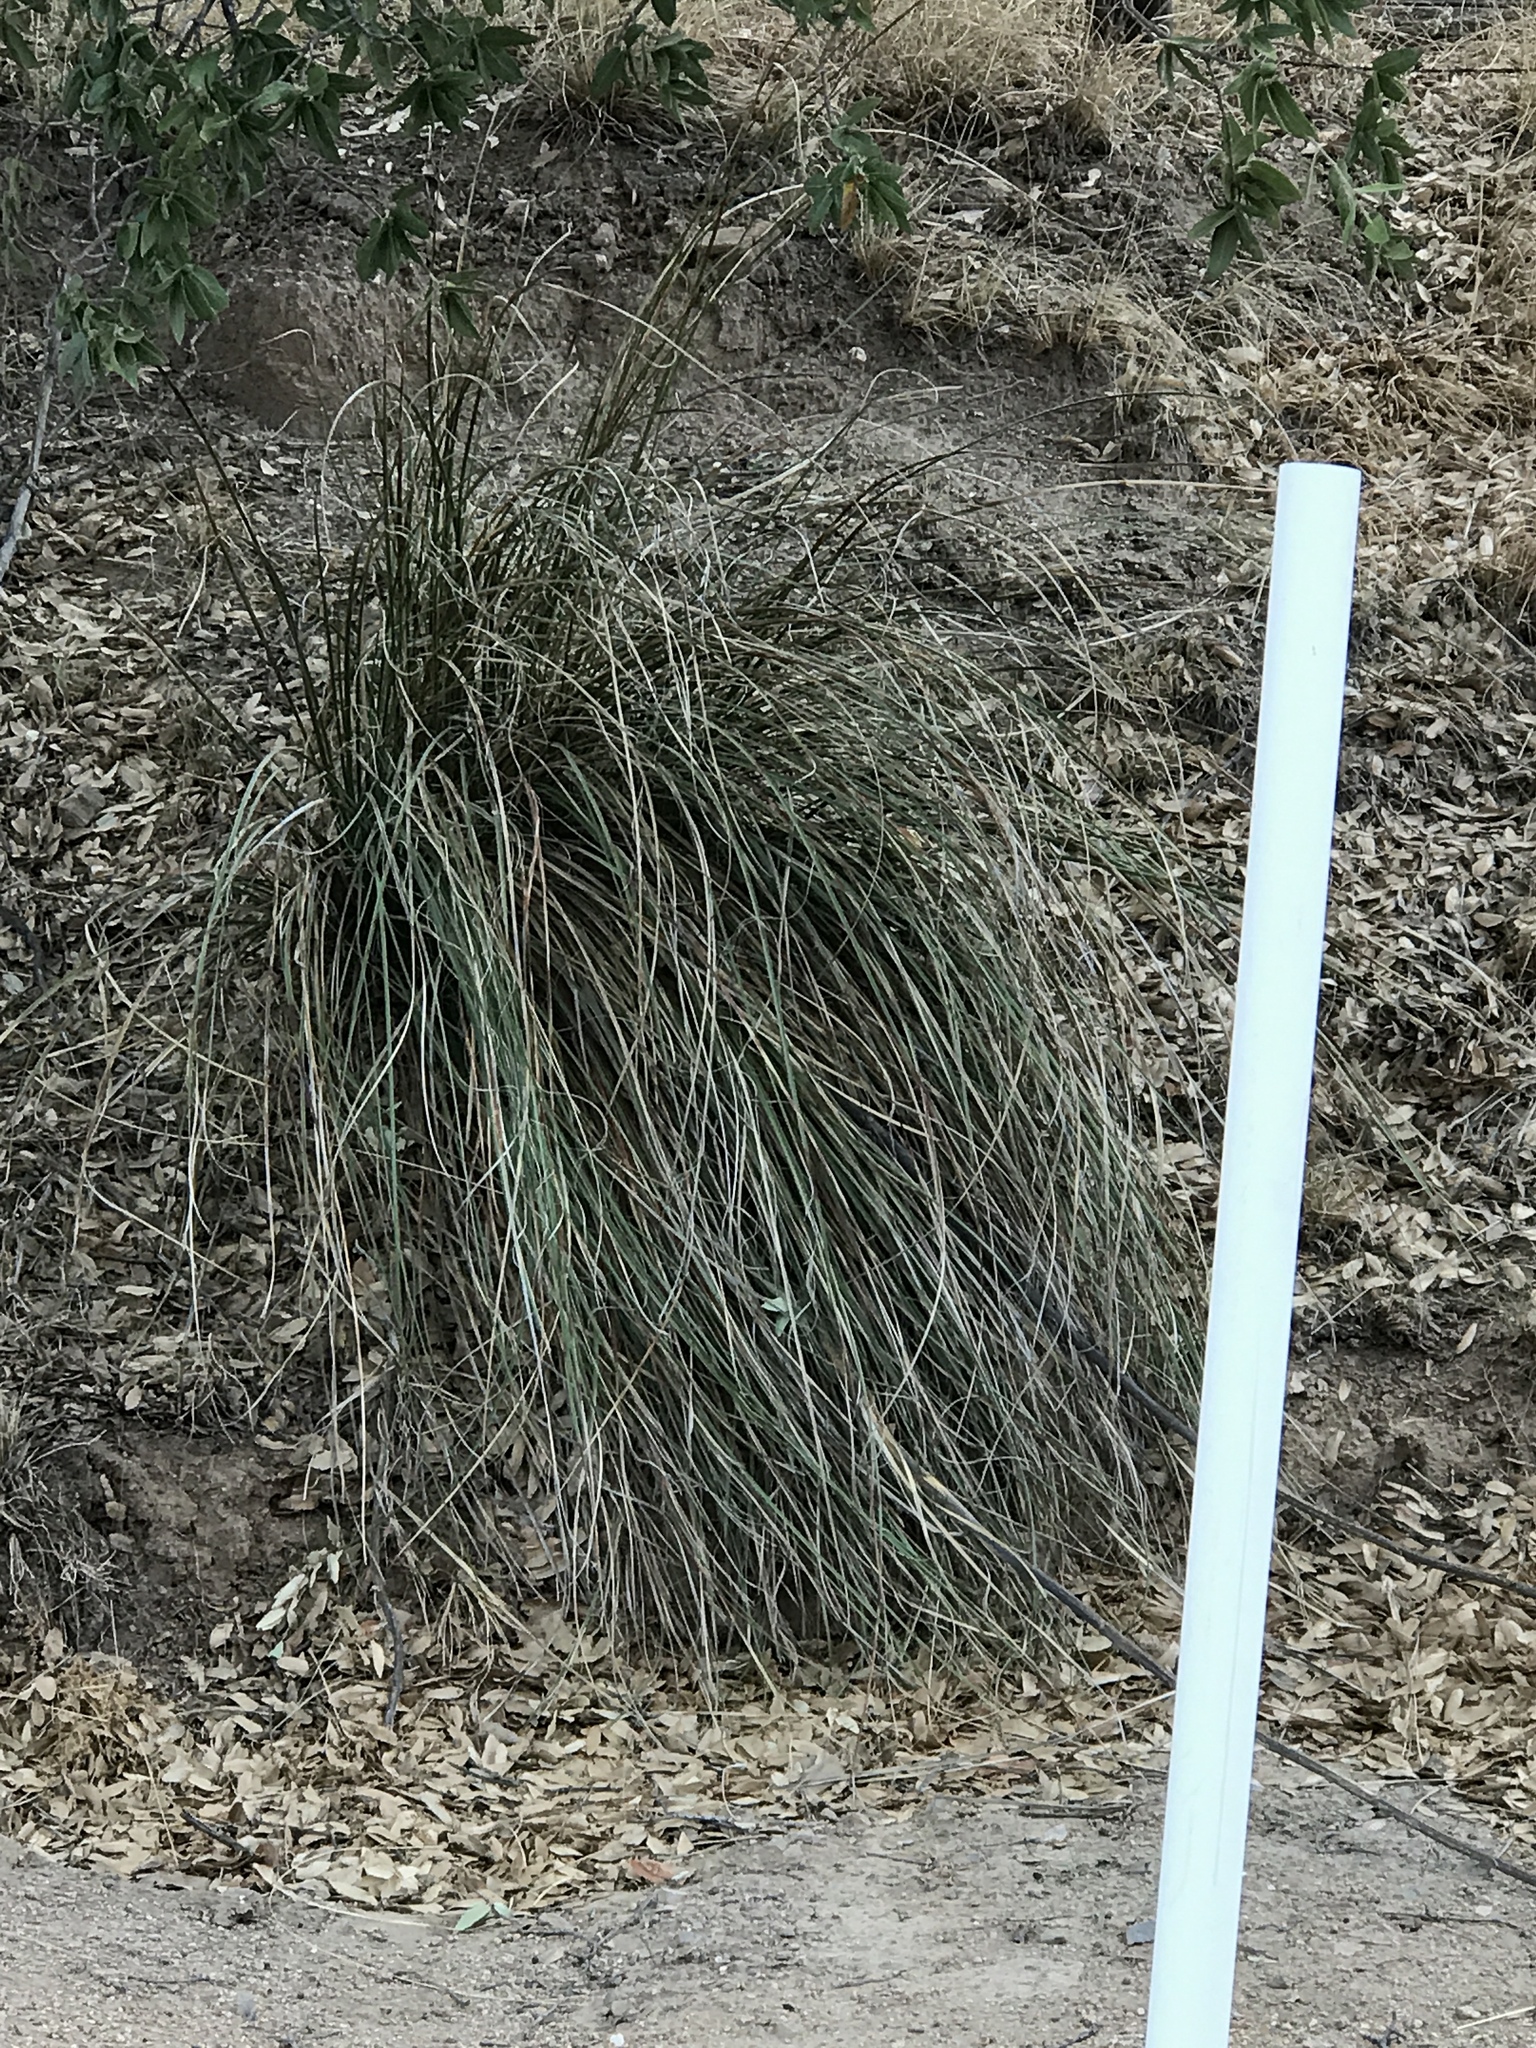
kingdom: Plantae
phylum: Tracheophyta
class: Liliopsida
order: Asparagales
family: Asparagaceae
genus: Nolina
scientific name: Nolina microcarpa
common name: Bear-grass
